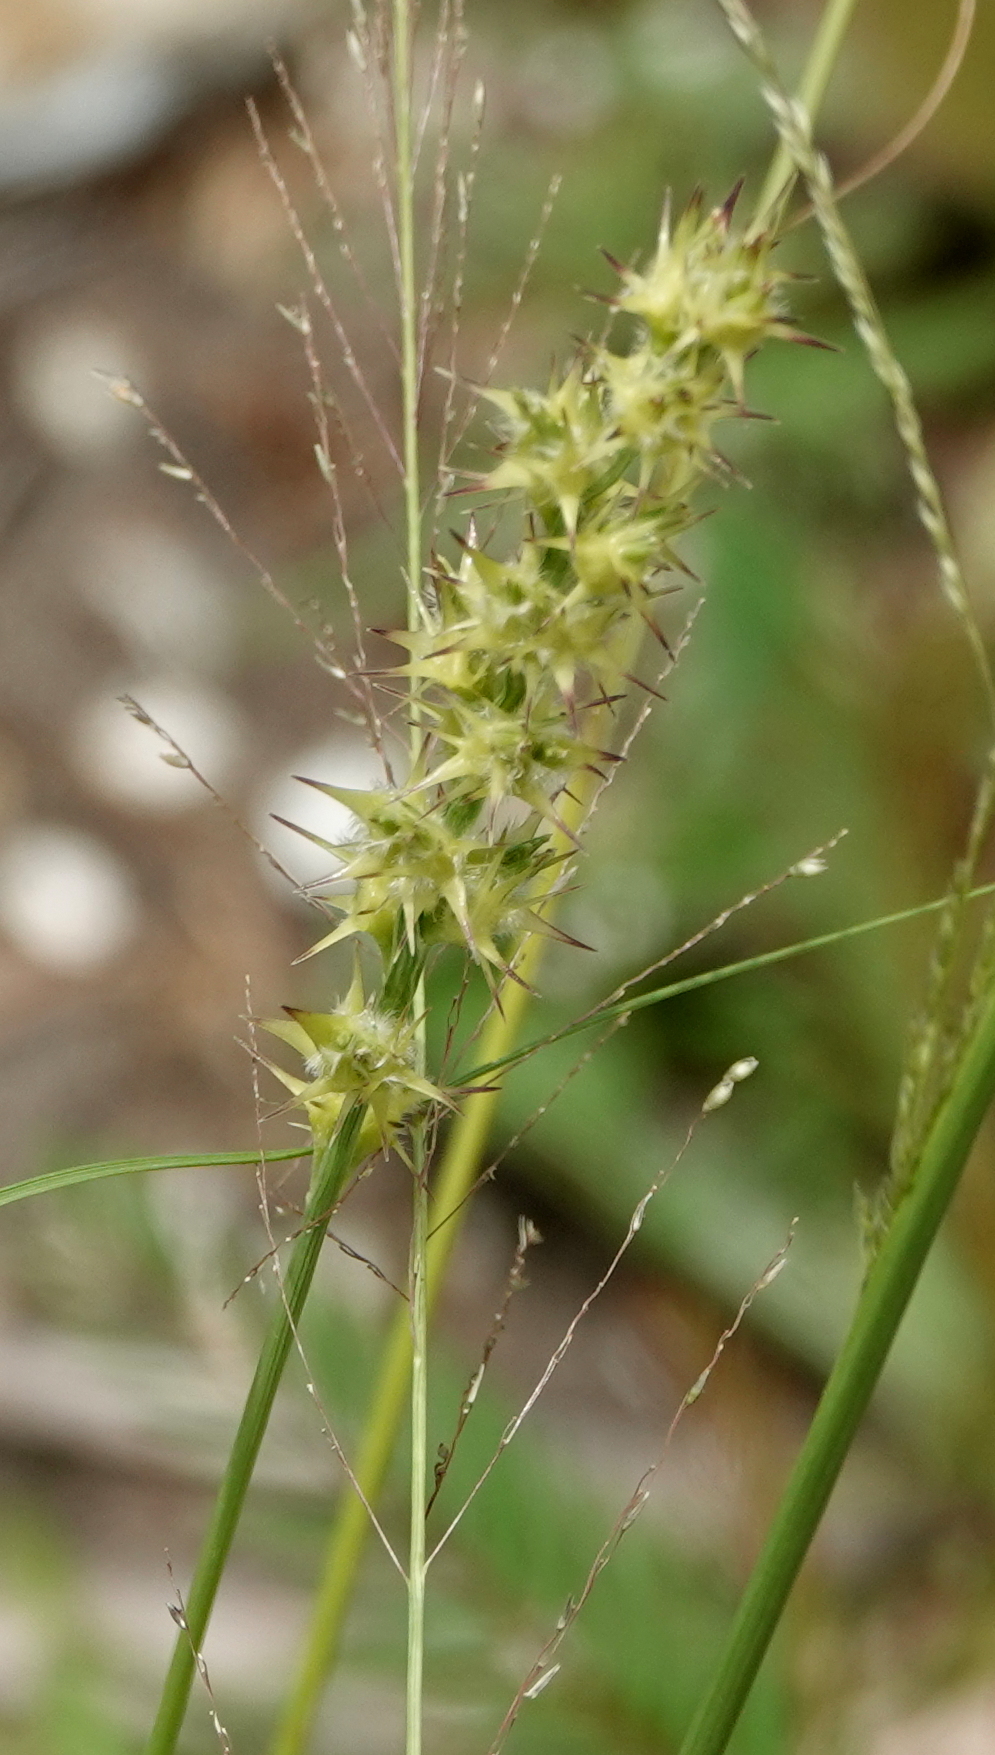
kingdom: Plantae
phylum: Tracheophyta
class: Liliopsida
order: Poales
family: Poaceae
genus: Cenchrus
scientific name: Cenchrus spinifex
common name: Coast sandbur
